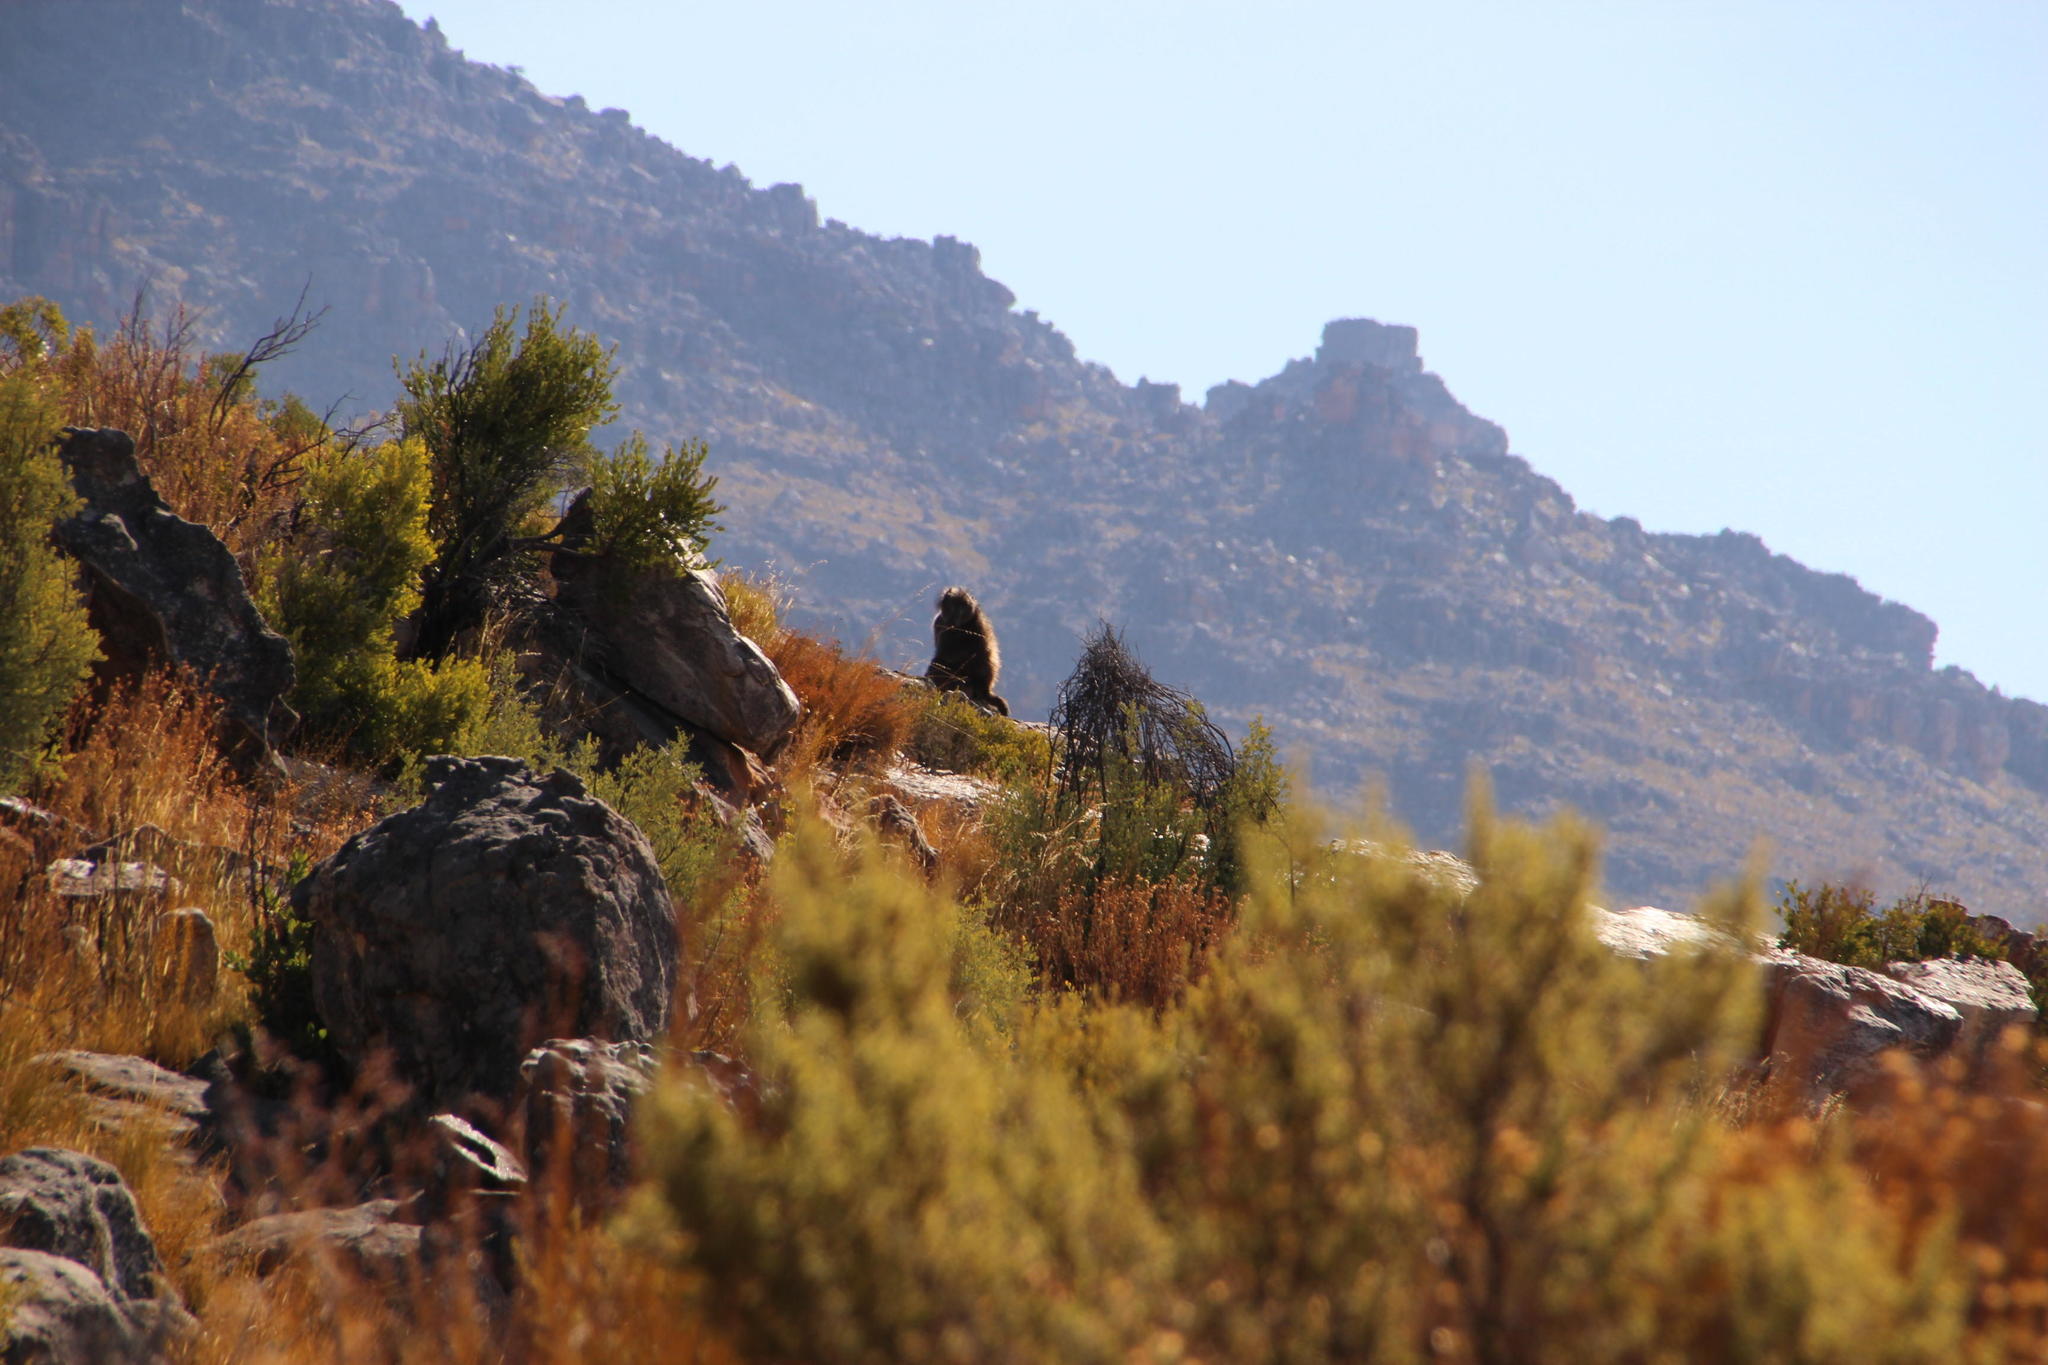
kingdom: Animalia
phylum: Chordata
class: Mammalia
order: Primates
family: Cercopithecidae
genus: Papio
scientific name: Papio ursinus
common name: Chacma baboon
